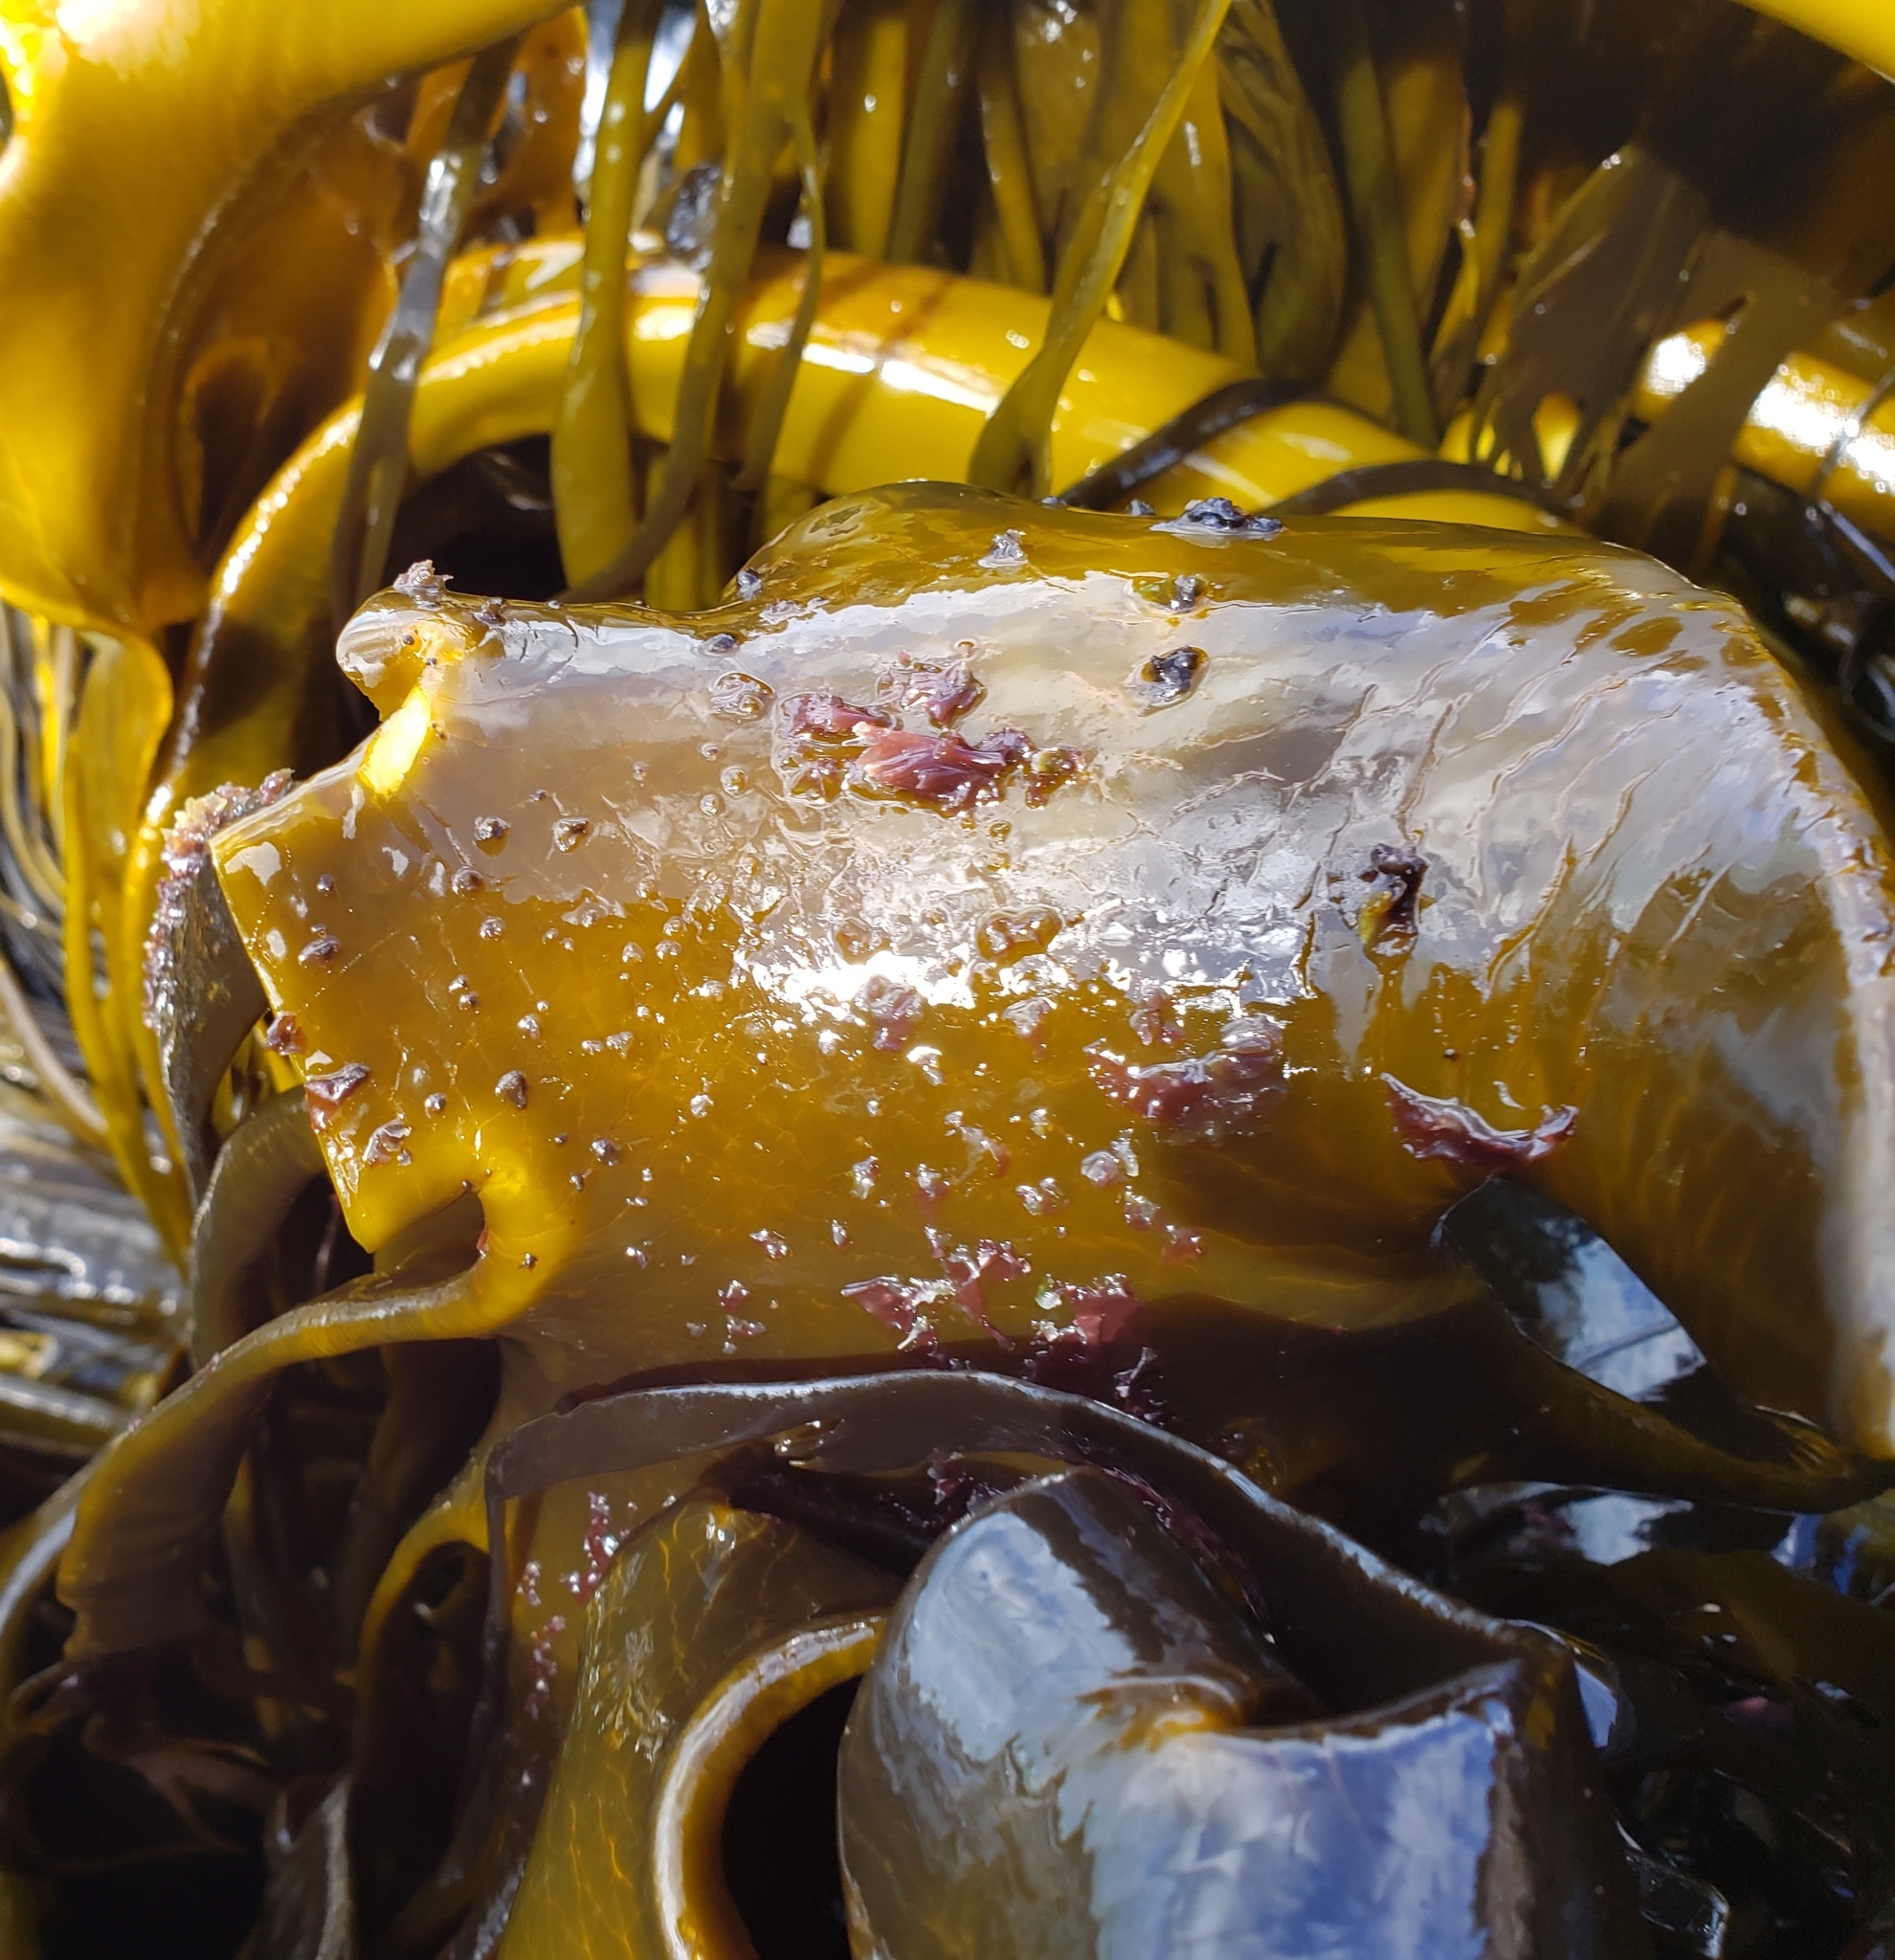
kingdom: Plantae
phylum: Rhodophyta
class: Compsopogonophyceae
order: Erythropeltidales
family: Erythrotrichiaceae
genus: Pyrophyllon
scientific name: Pyrophyllon subtumens
